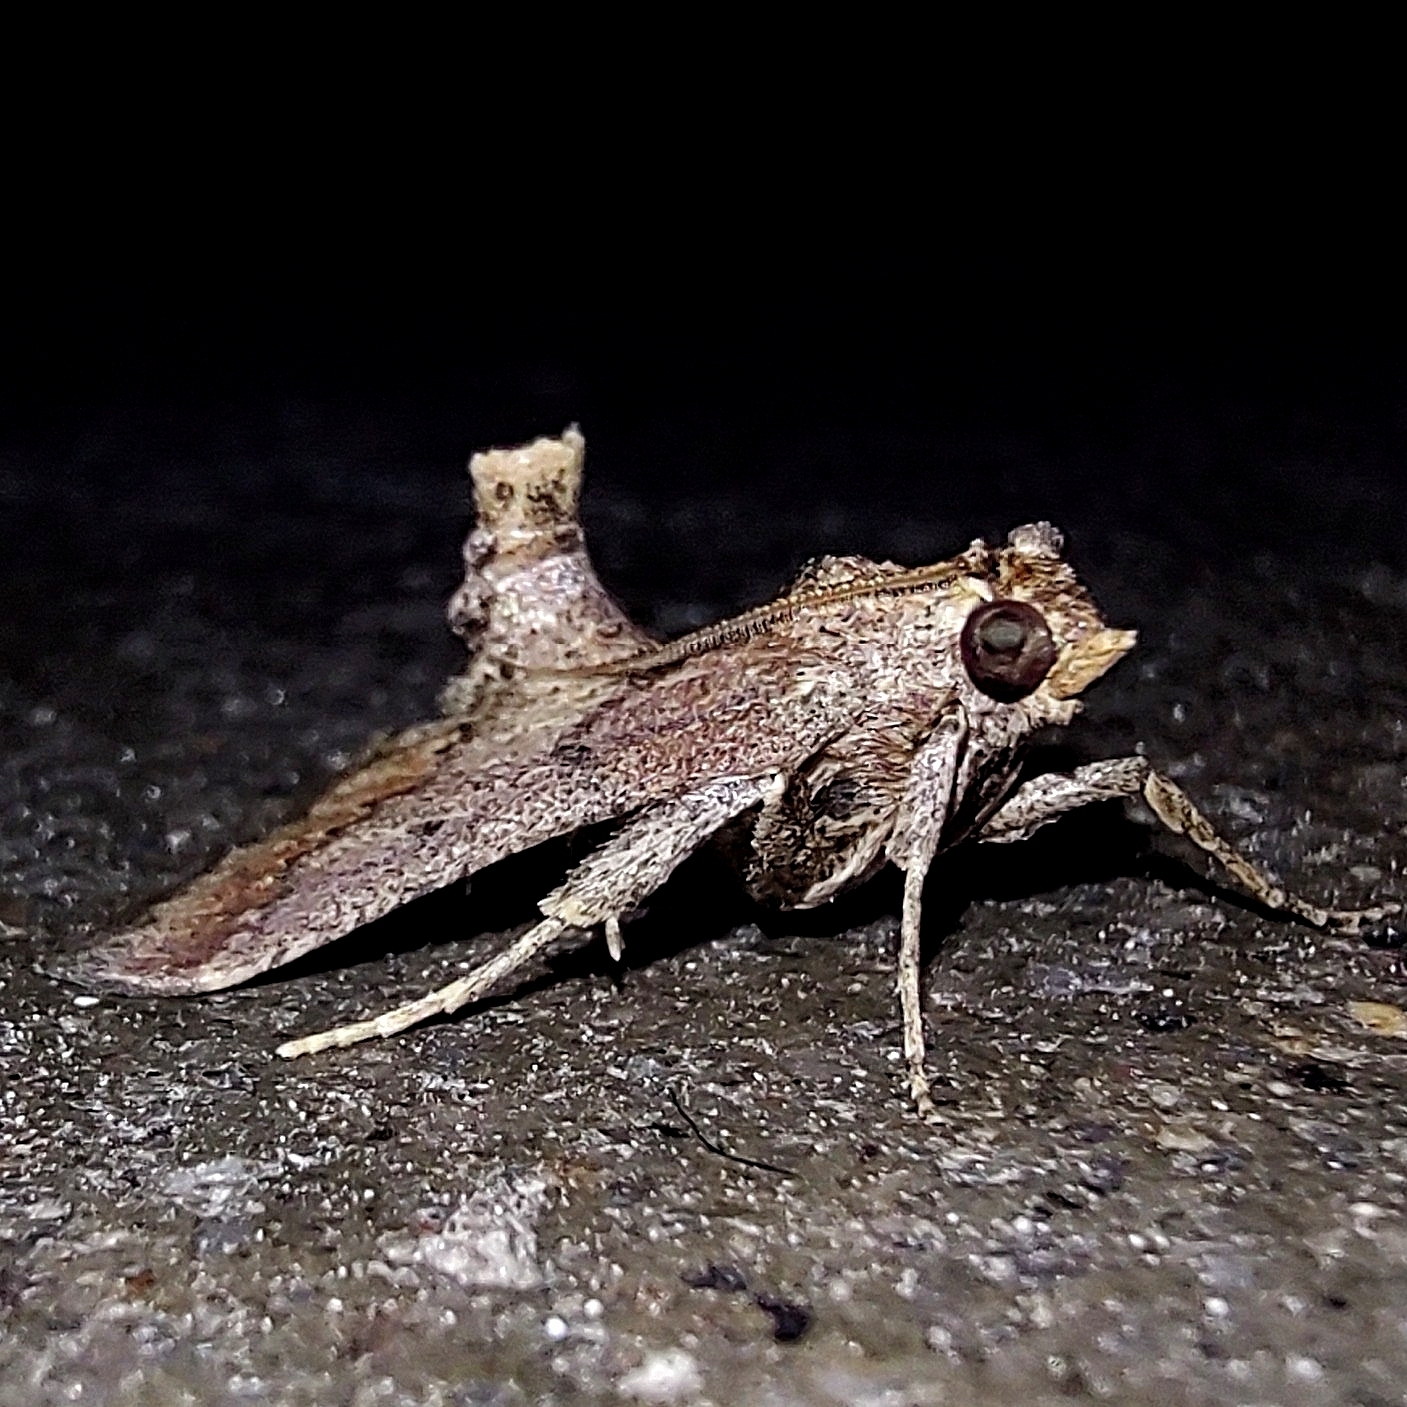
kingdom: Animalia
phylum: Arthropoda
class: Insecta
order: Lepidoptera
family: Pyralidae
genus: Hypsopygia
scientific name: Hypsopygia phoezalis
